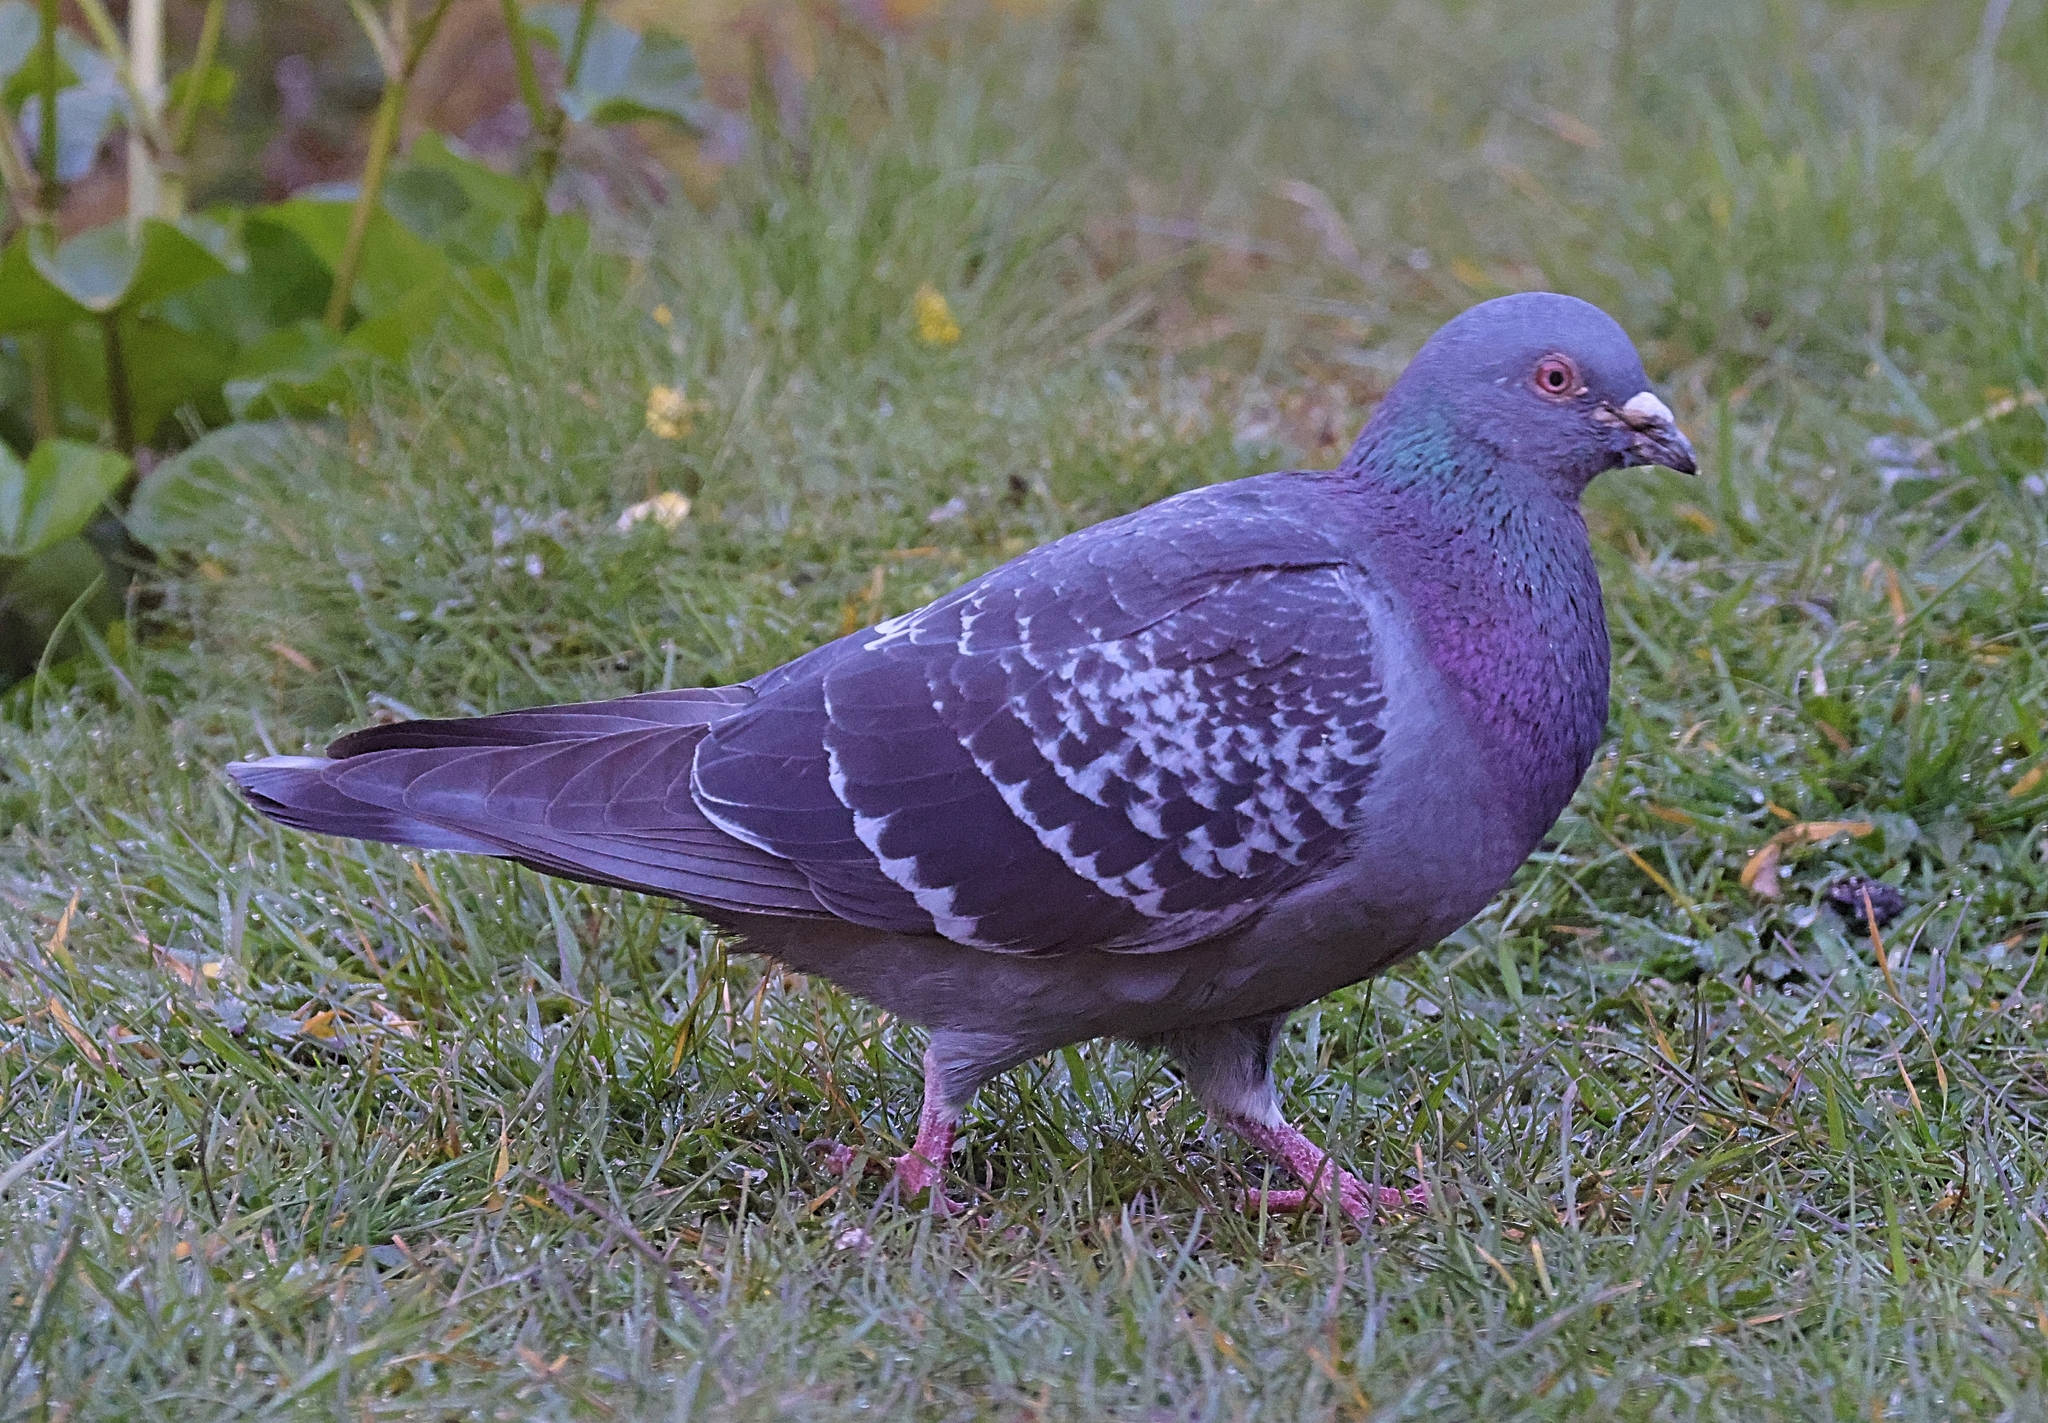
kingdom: Animalia
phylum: Chordata
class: Aves
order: Columbiformes
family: Columbidae
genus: Columba
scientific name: Columba livia
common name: Rock pigeon
